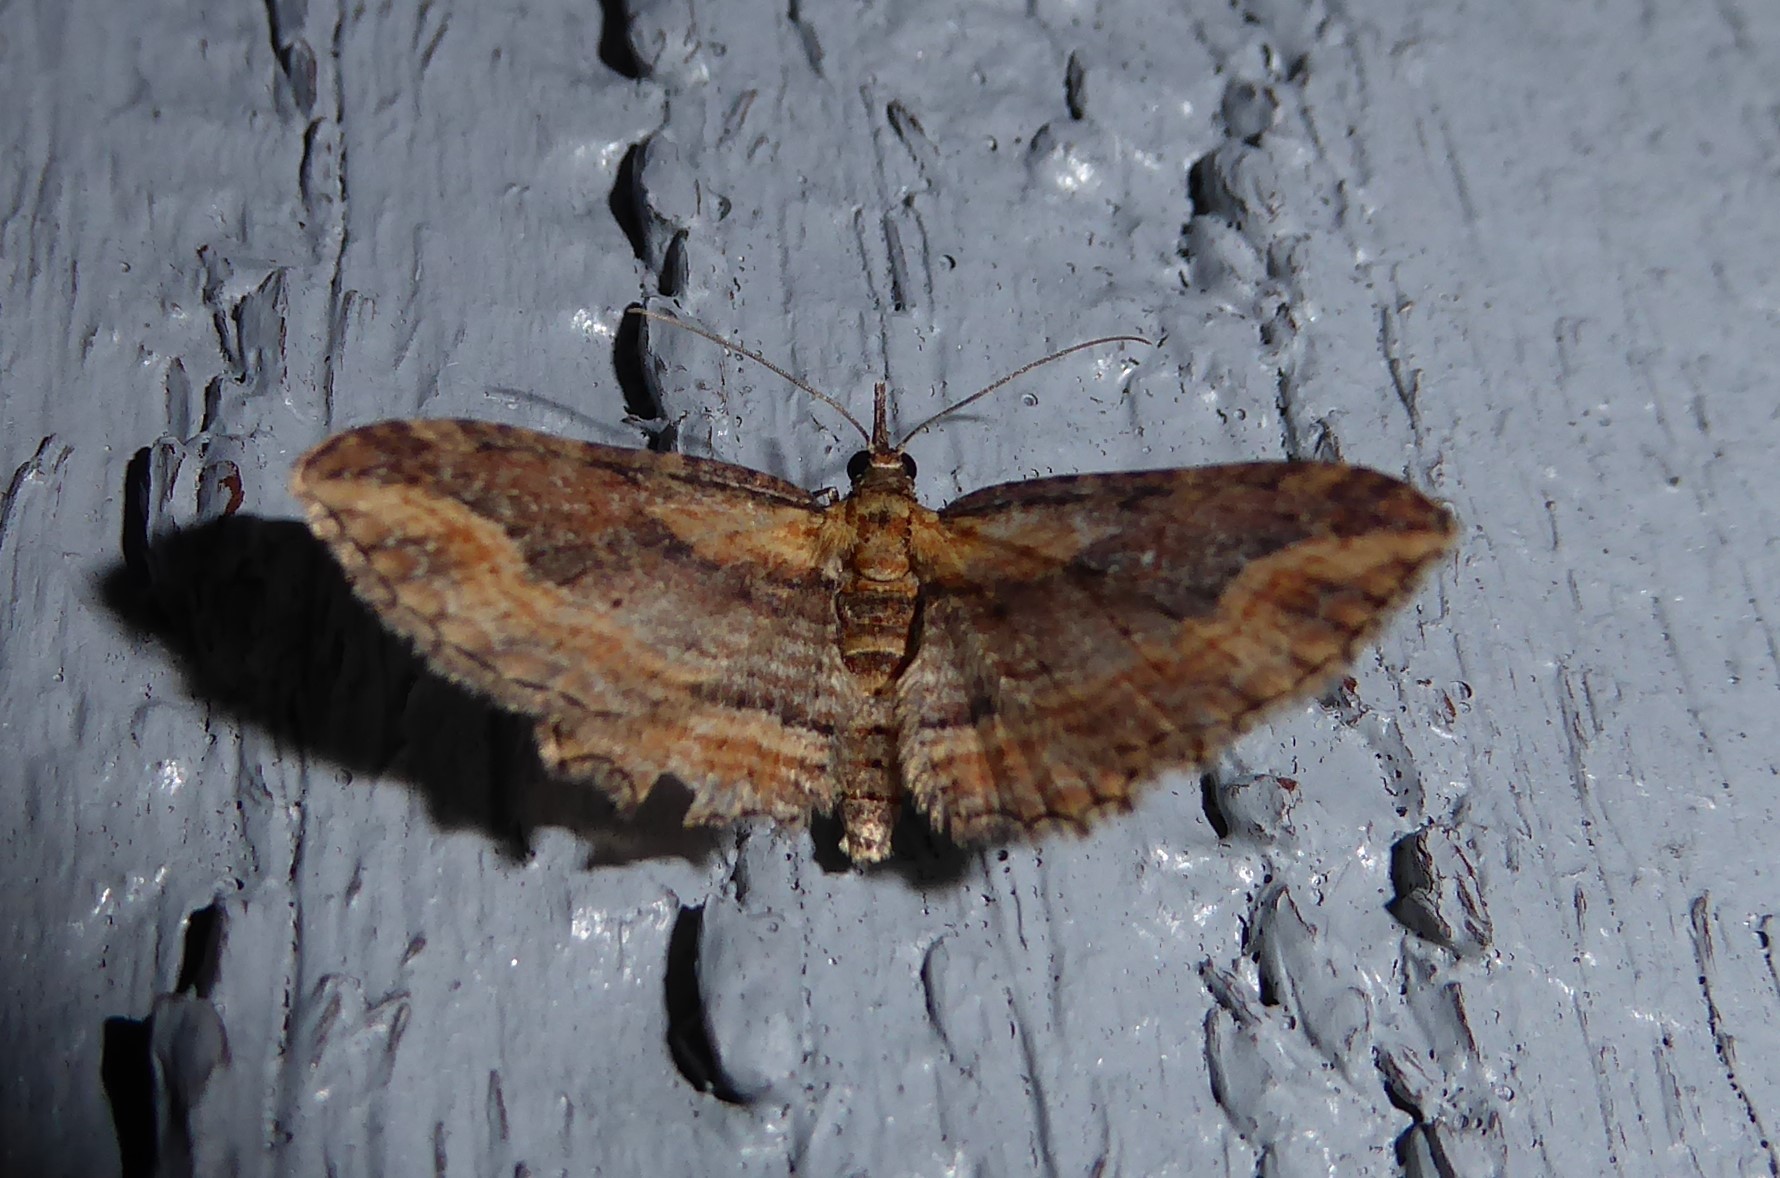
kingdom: Animalia
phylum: Arthropoda
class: Insecta
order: Lepidoptera
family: Geometridae
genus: Chloroclystis
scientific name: Chloroclystis filata
